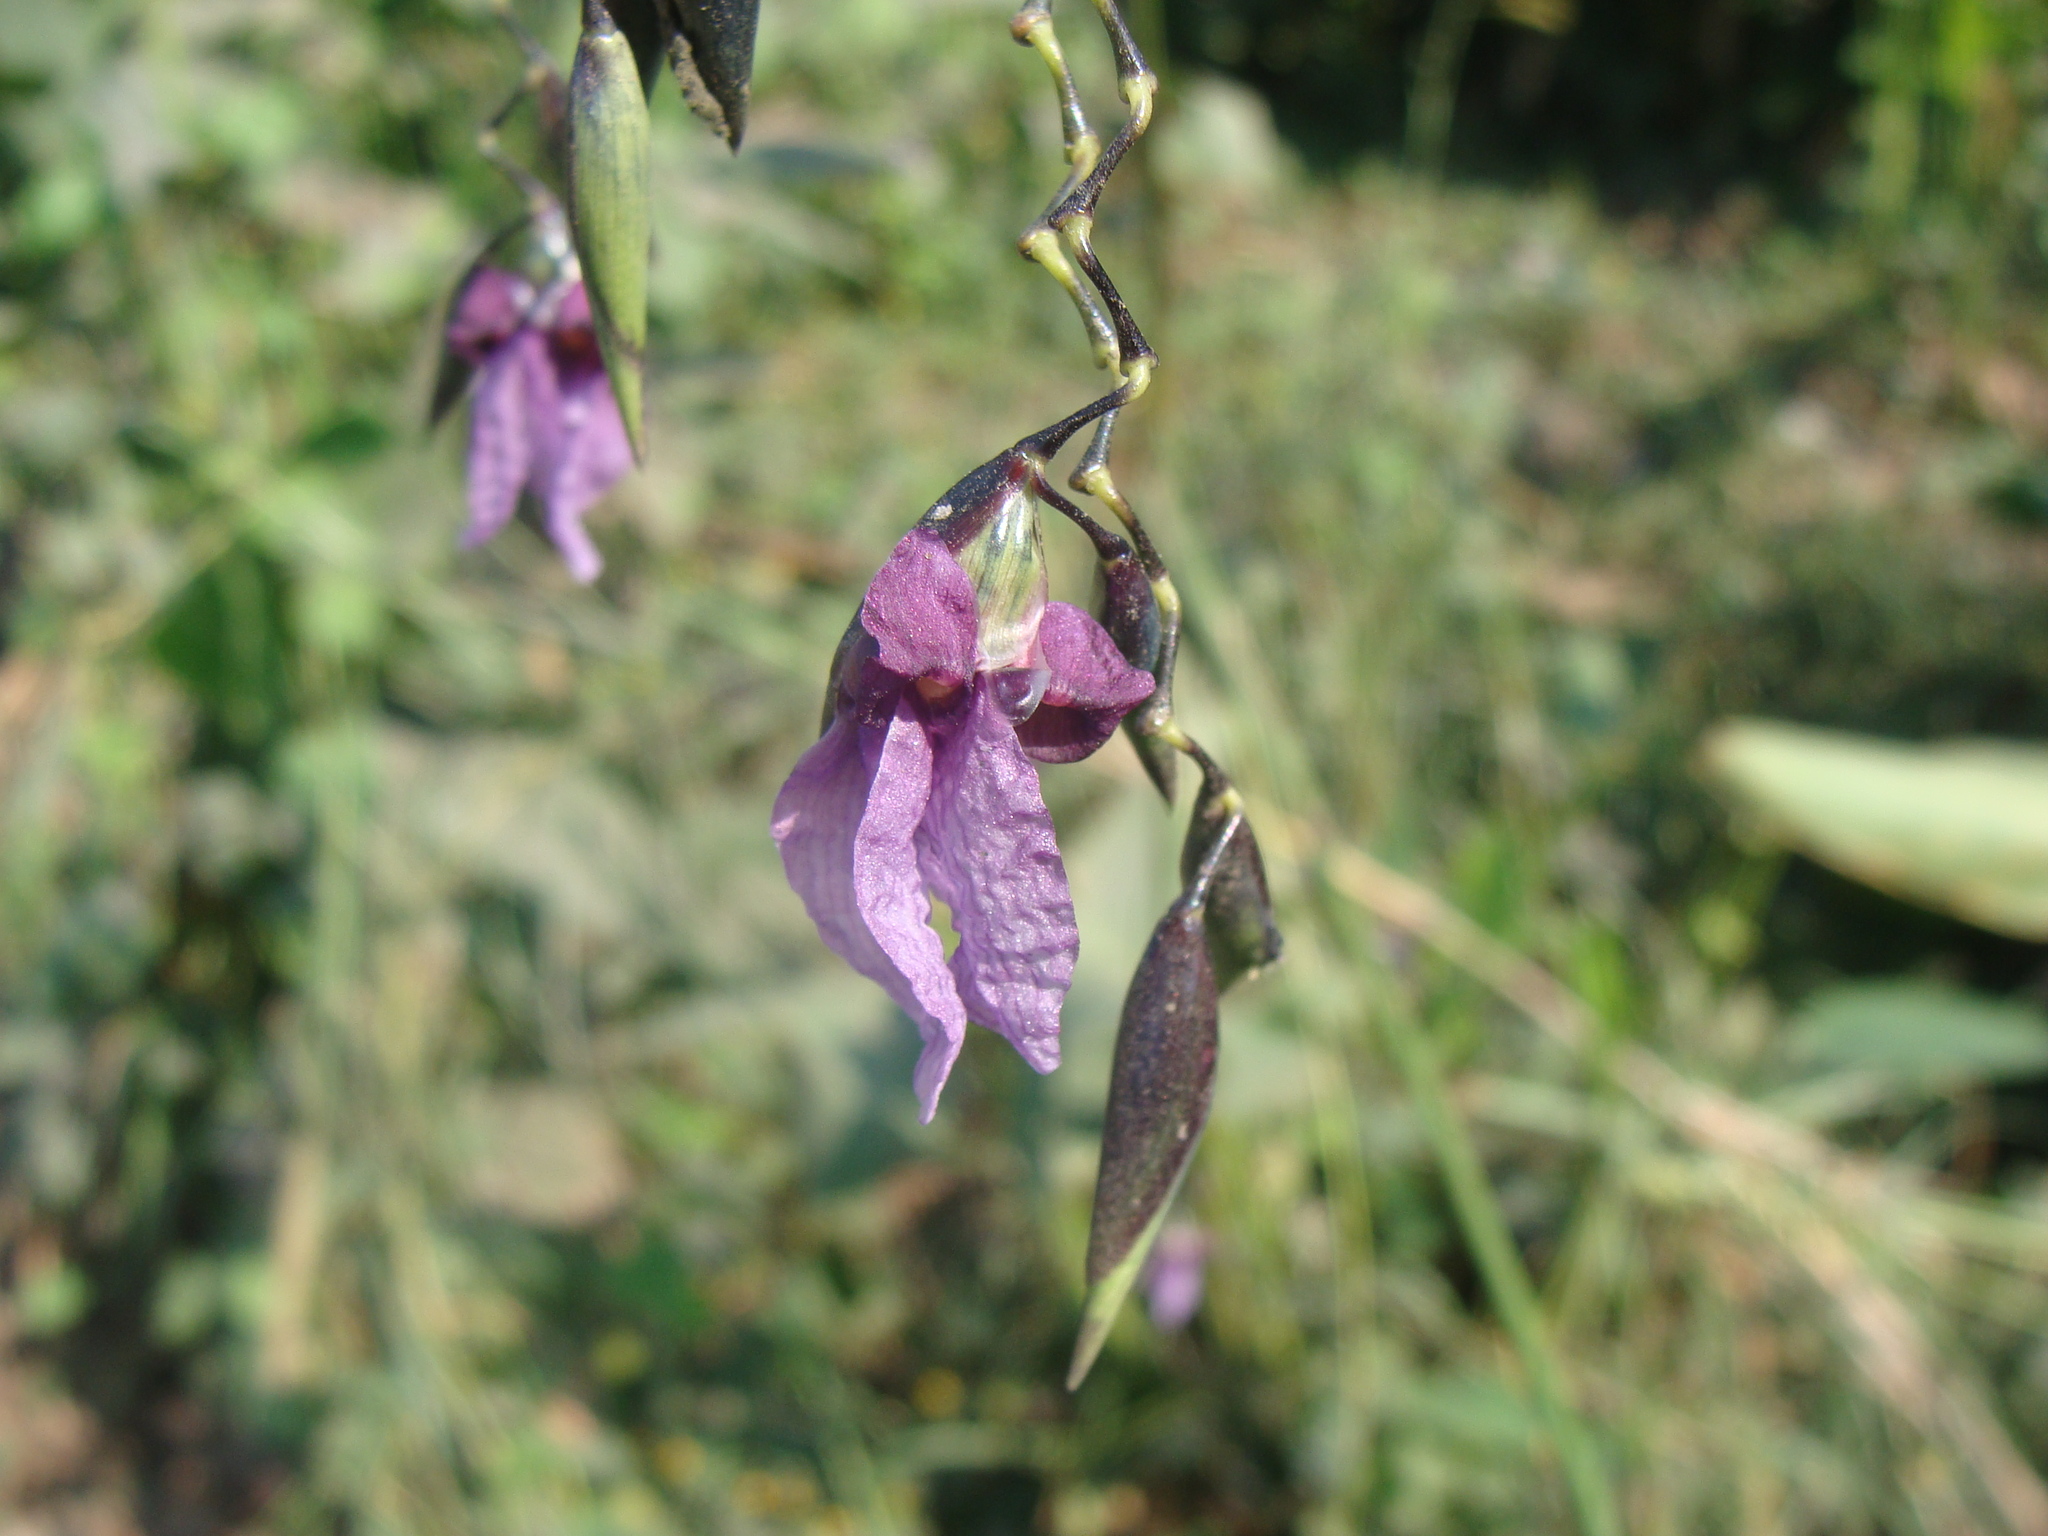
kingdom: Plantae
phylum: Tracheophyta
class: Liliopsida
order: Zingiberales
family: Marantaceae
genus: Thalia
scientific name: Thalia geniculata
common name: Arrowroot
